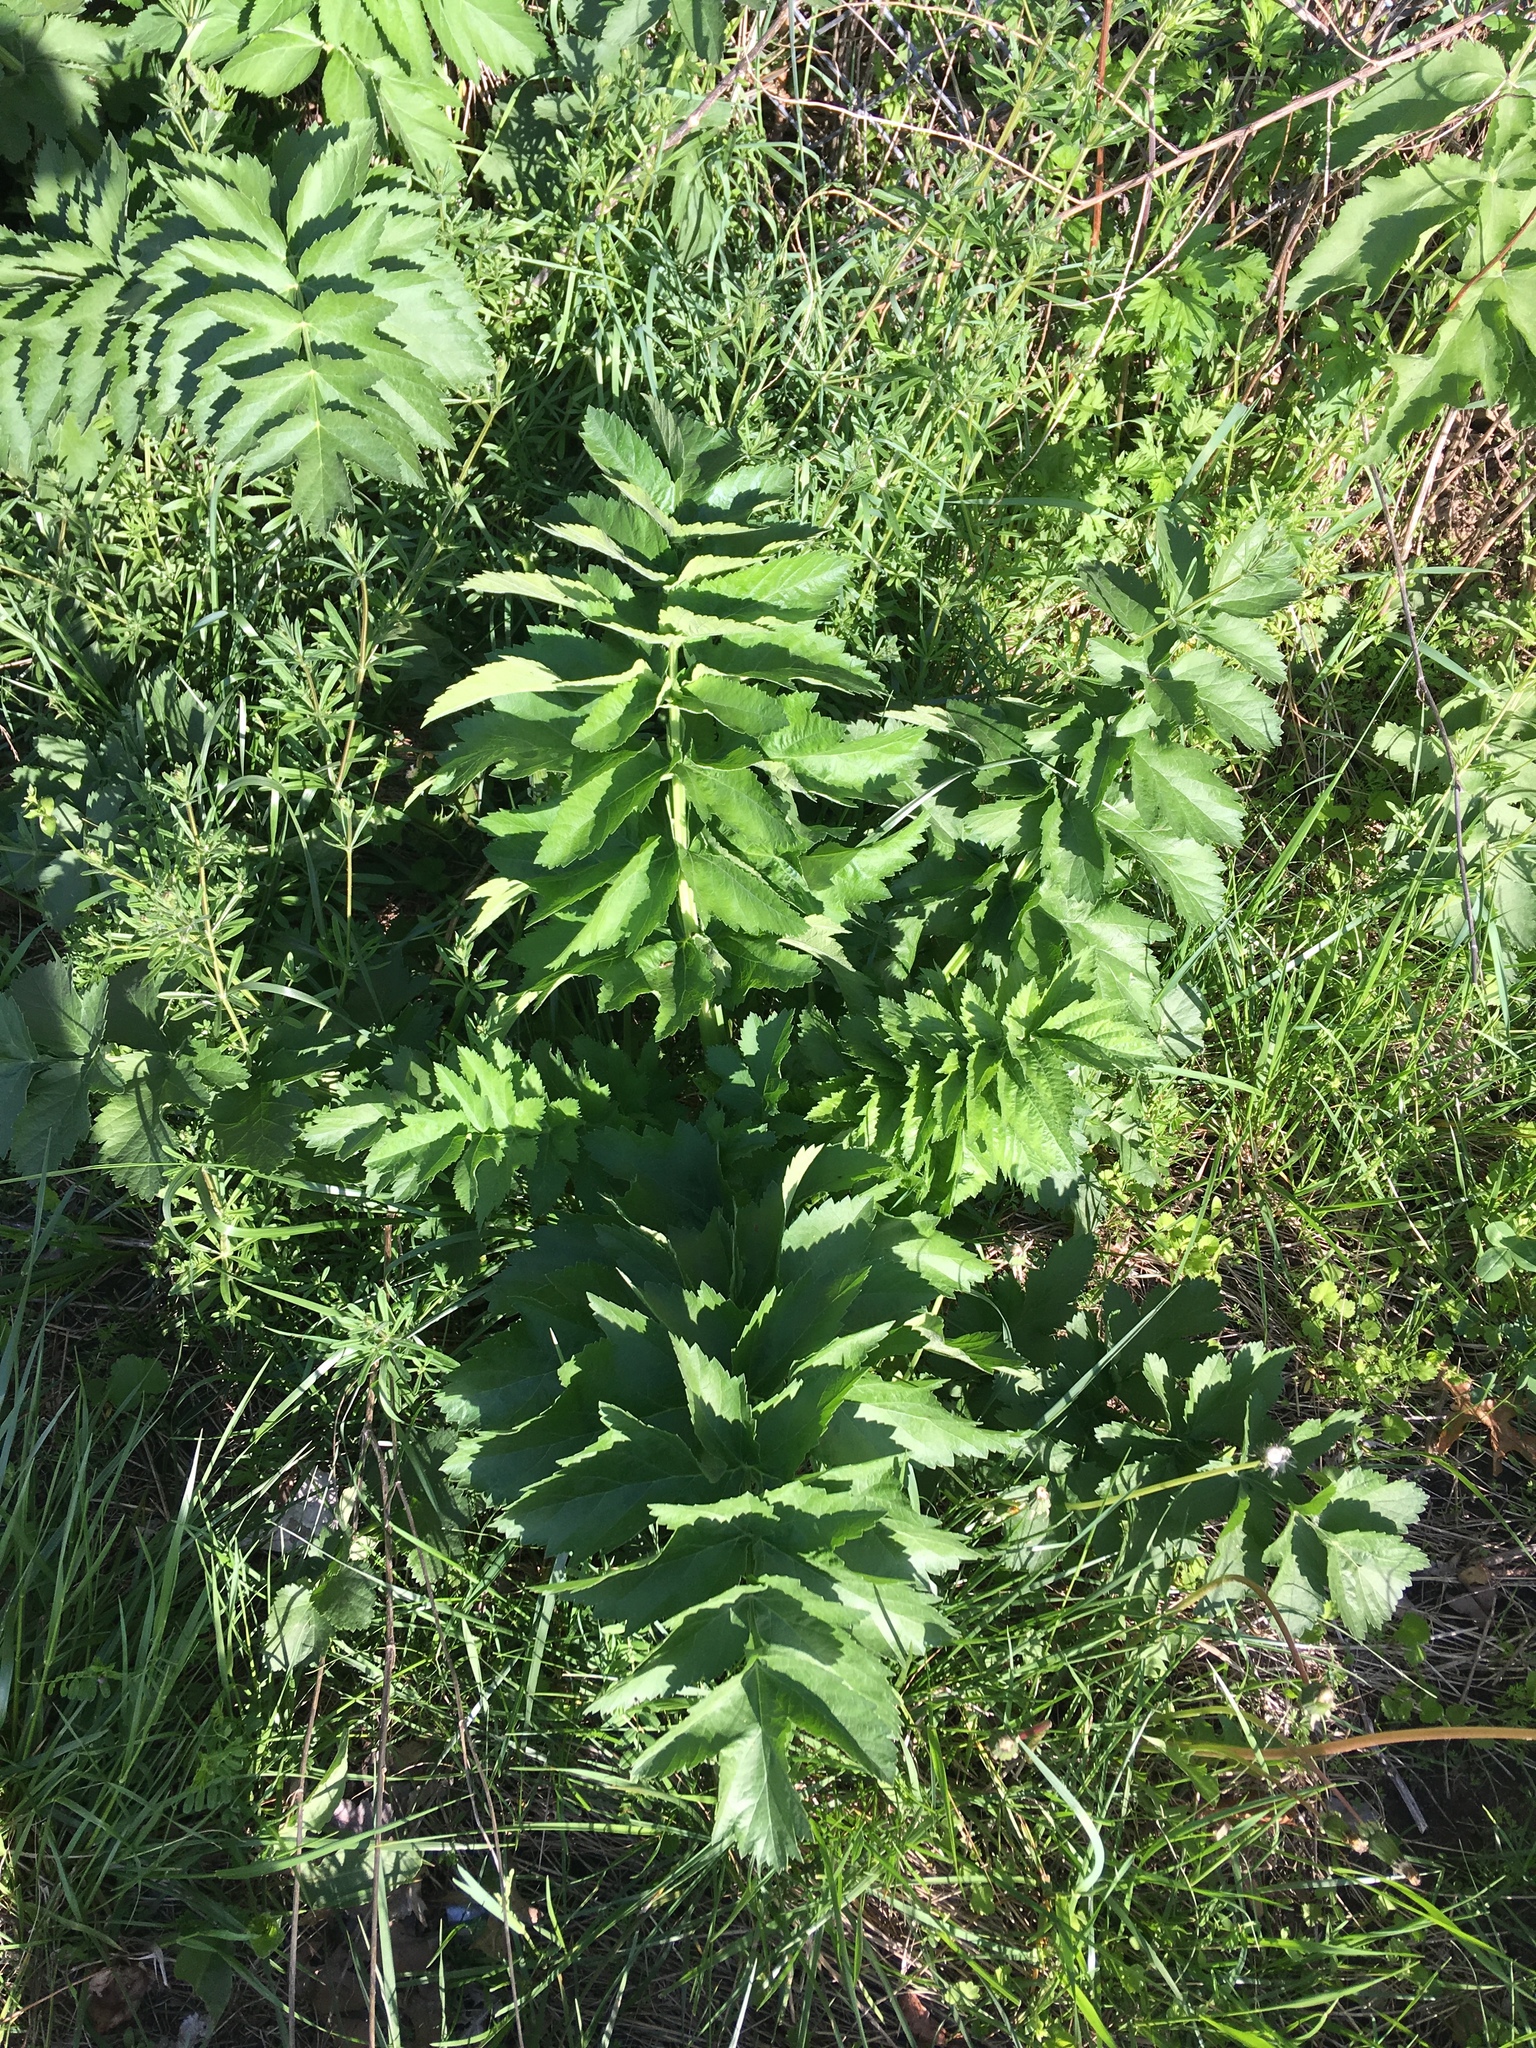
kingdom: Plantae
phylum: Tracheophyta
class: Magnoliopsida
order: Apiales
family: Apiaceae
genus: Pastinaca
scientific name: Pastinaca sativa
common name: Wild parsnip
